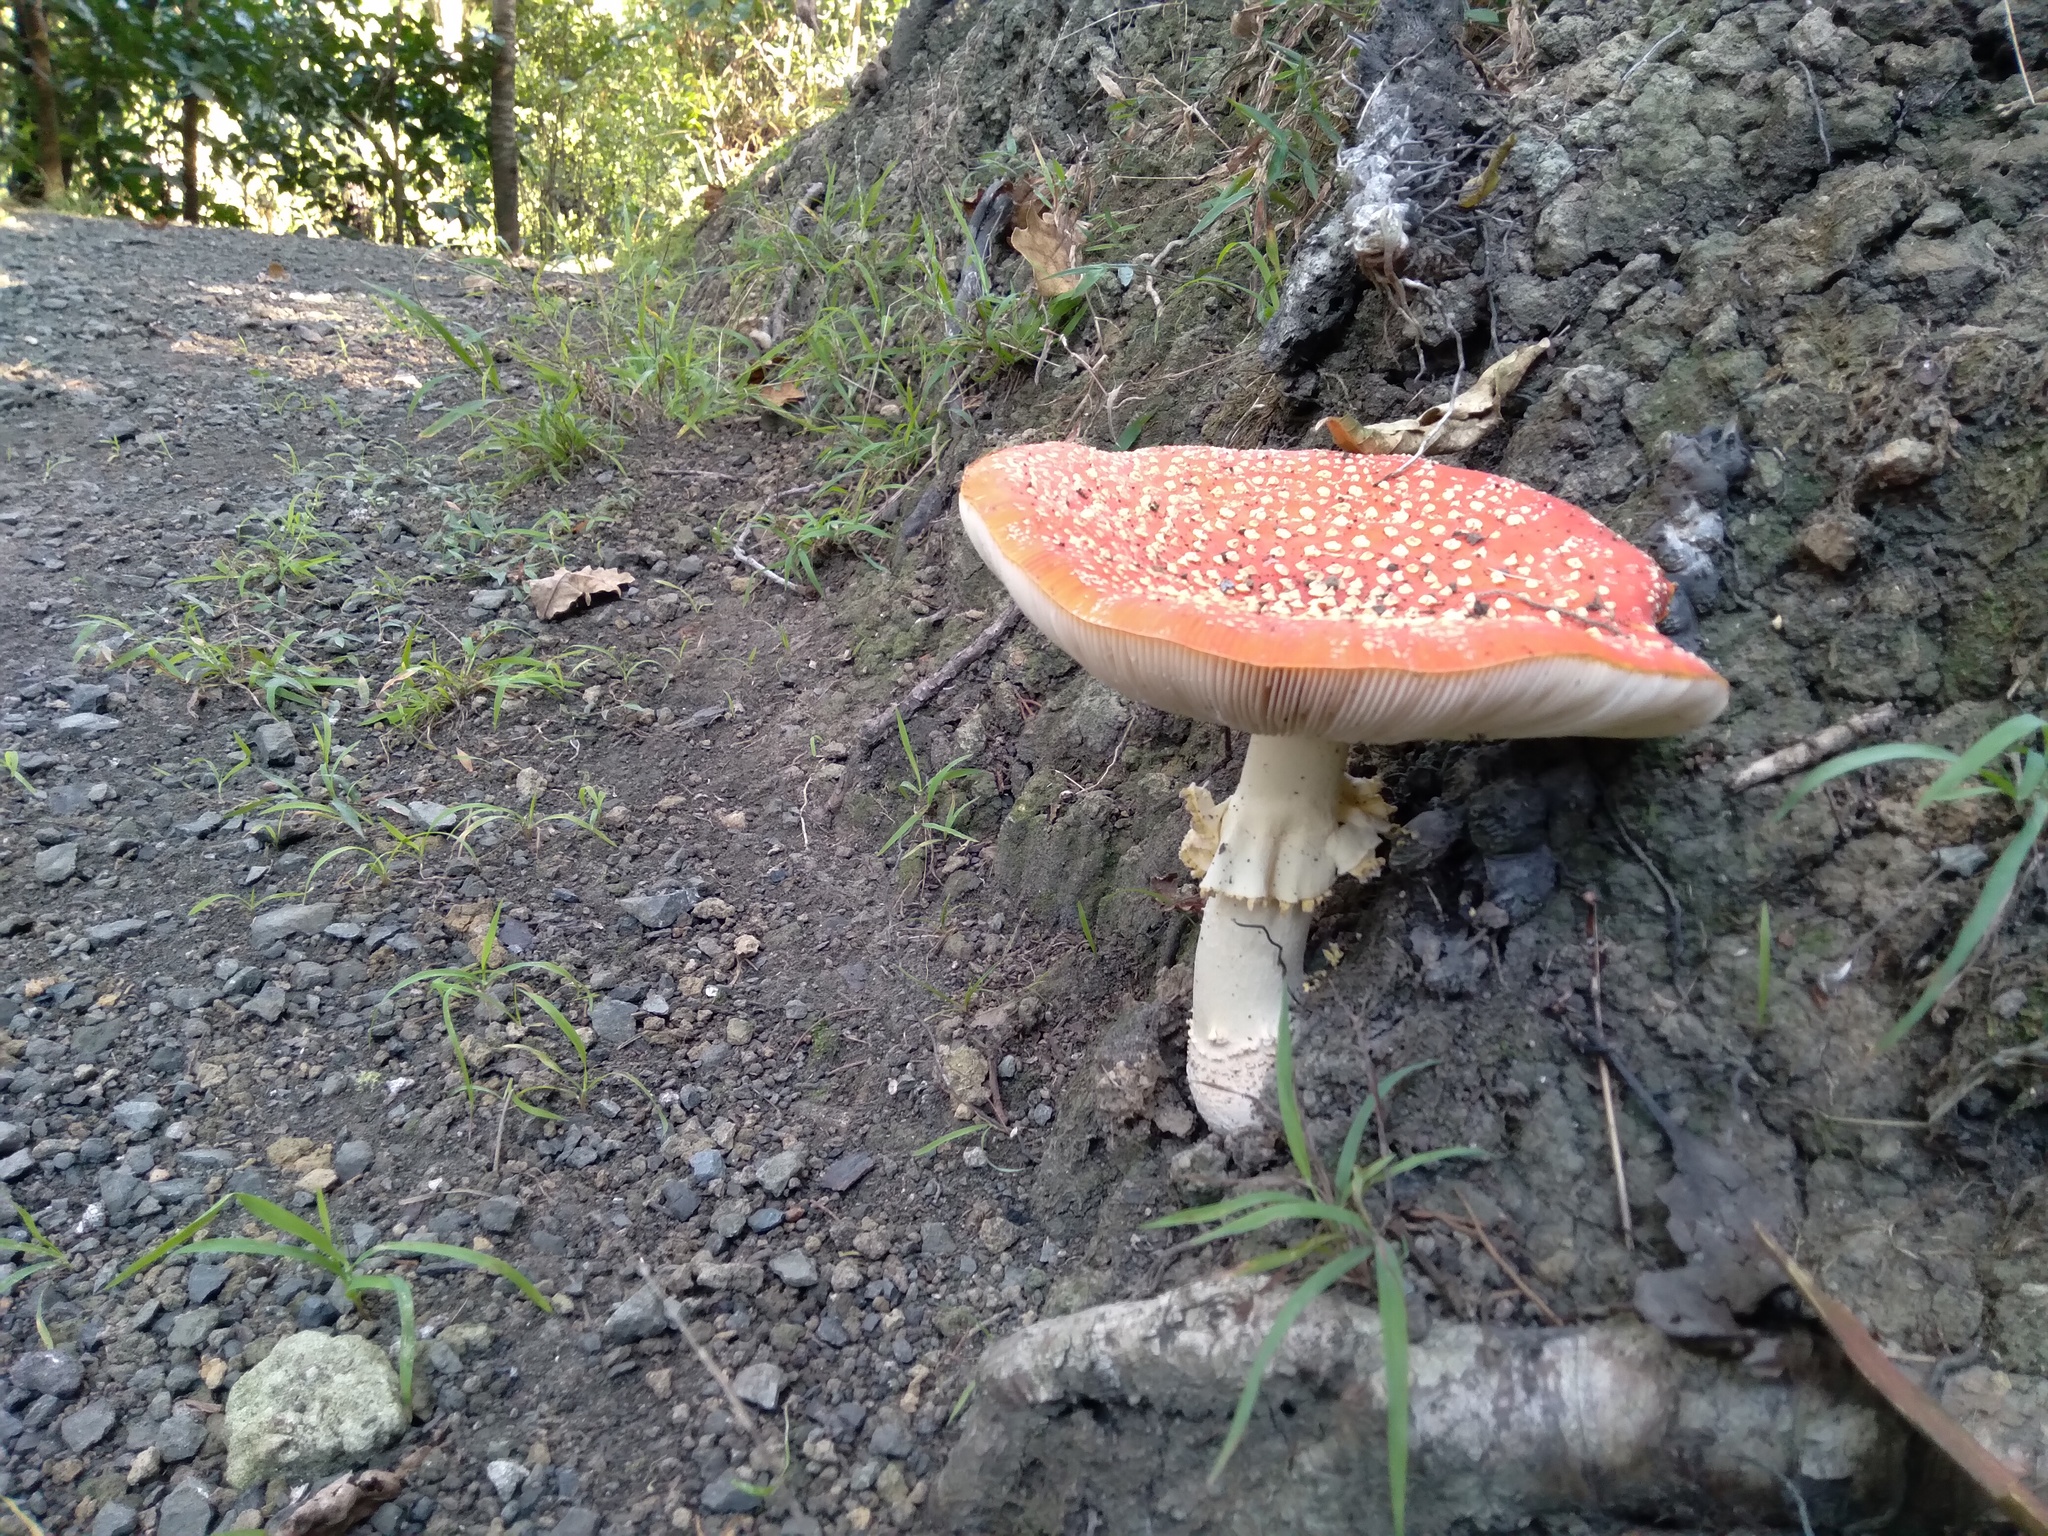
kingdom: Fungi
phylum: Basidiomycota
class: Agaricomycetes
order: Agaricales
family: Amanitaceae
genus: Amanita
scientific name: Amanita muscaria
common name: Fly agaric
